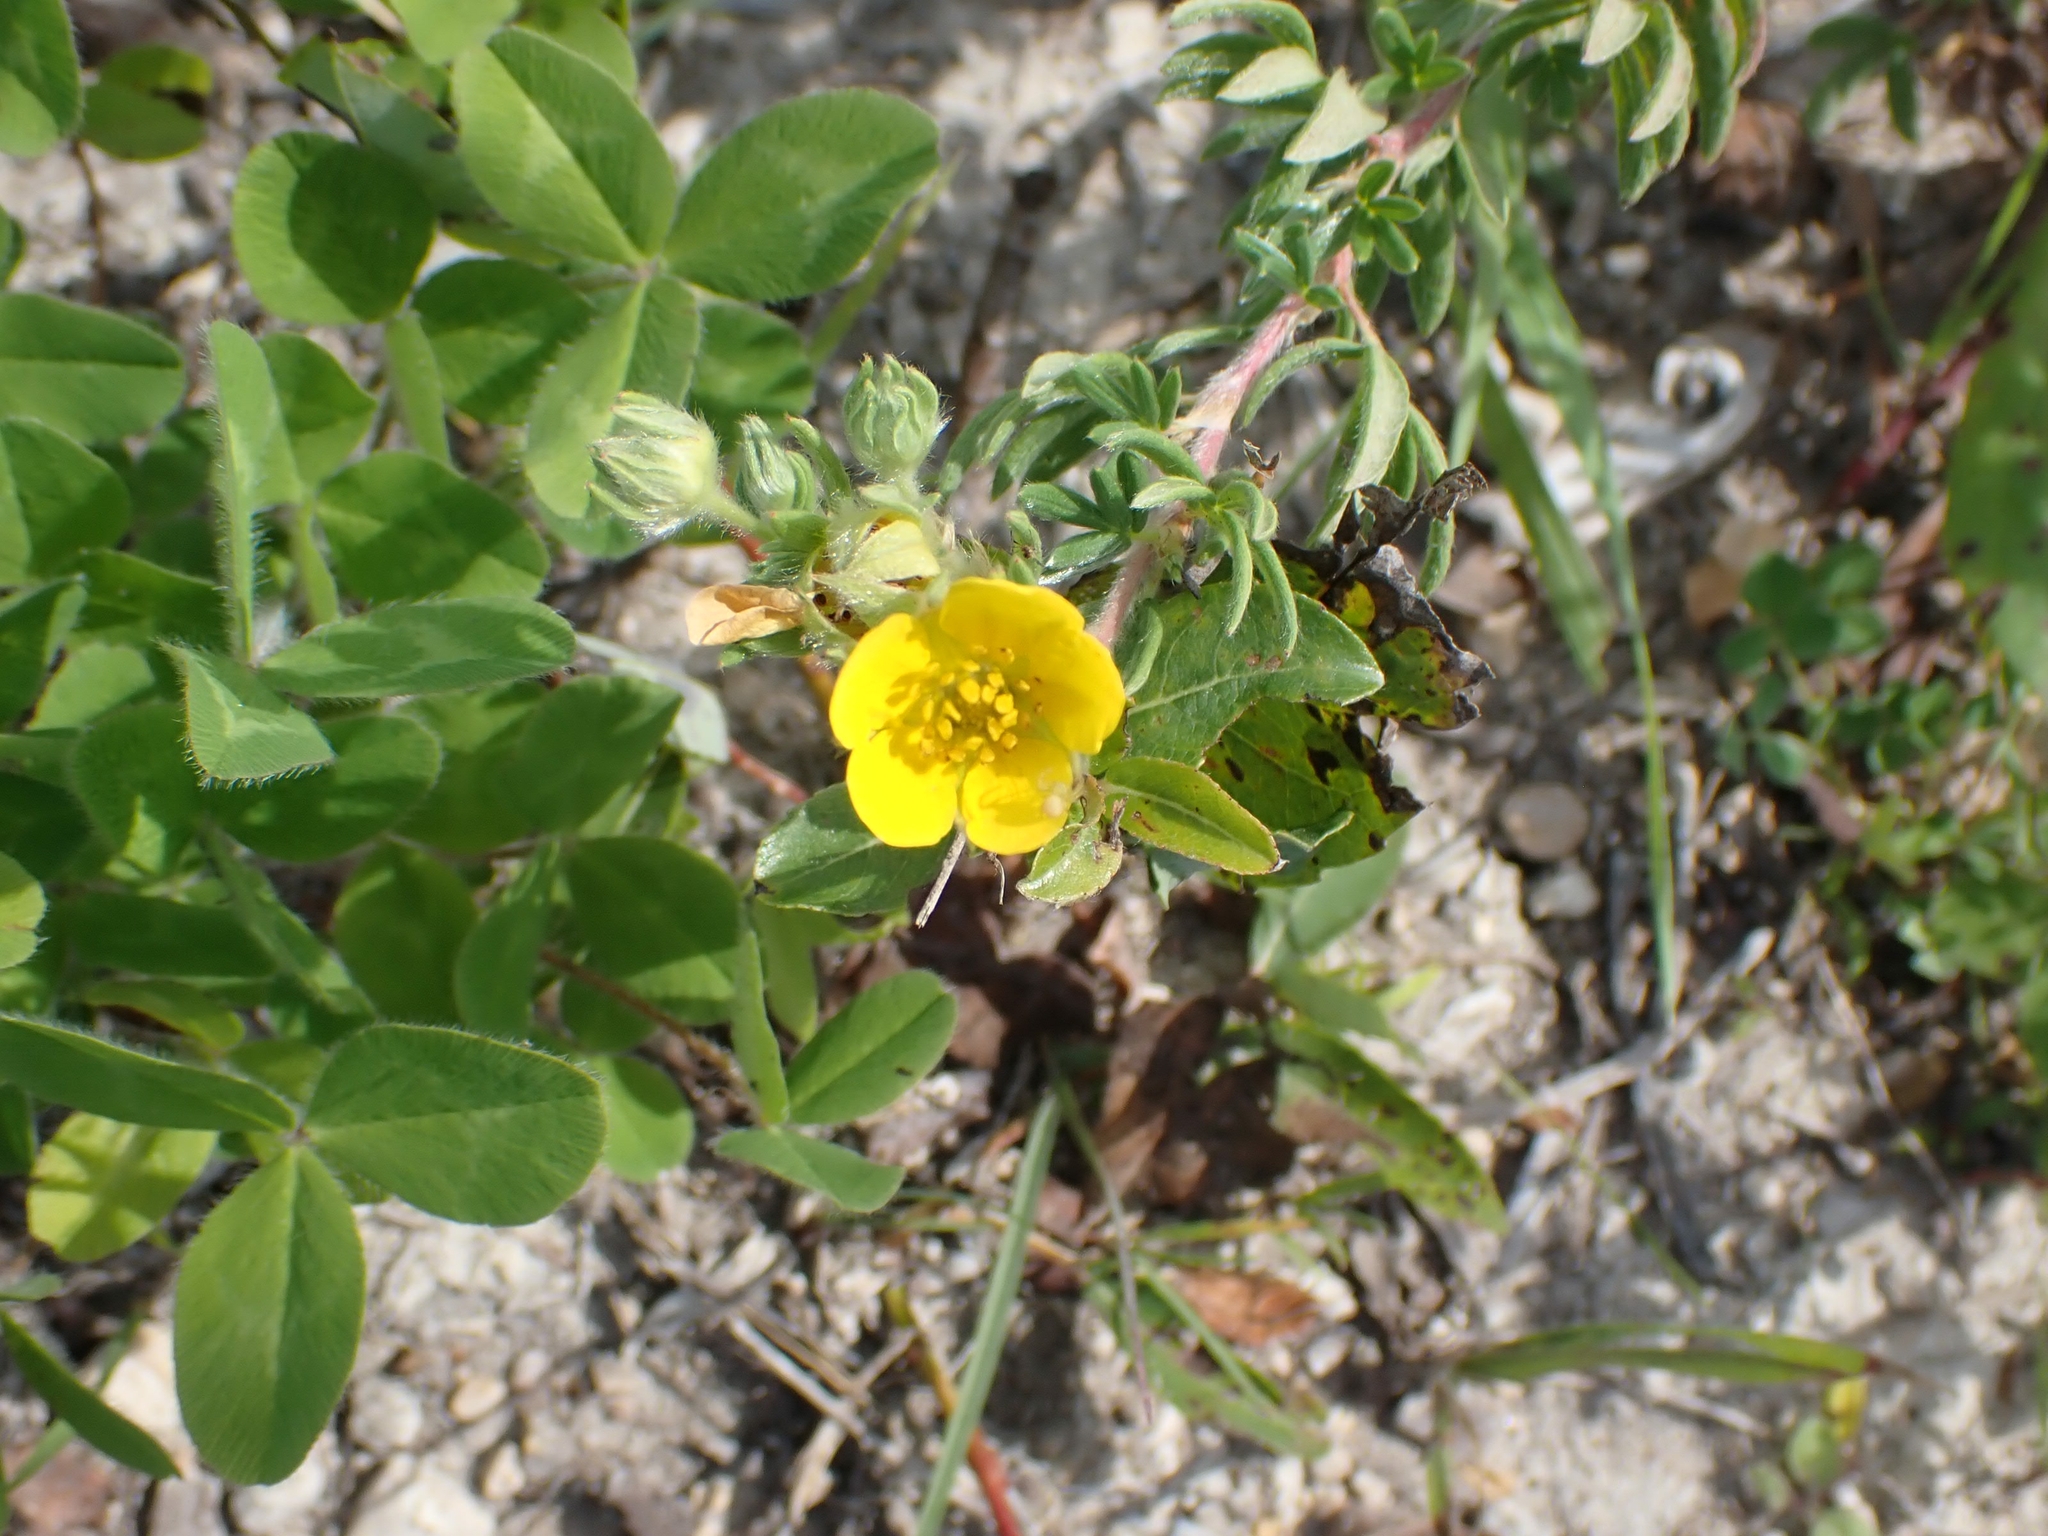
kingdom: Plantae
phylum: Tracheophyta
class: Magnoliopsida
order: Rosales
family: Rosaceae
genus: Dasiphora
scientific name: Dasiphora fruticosa
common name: Shrubby cinquefoil
